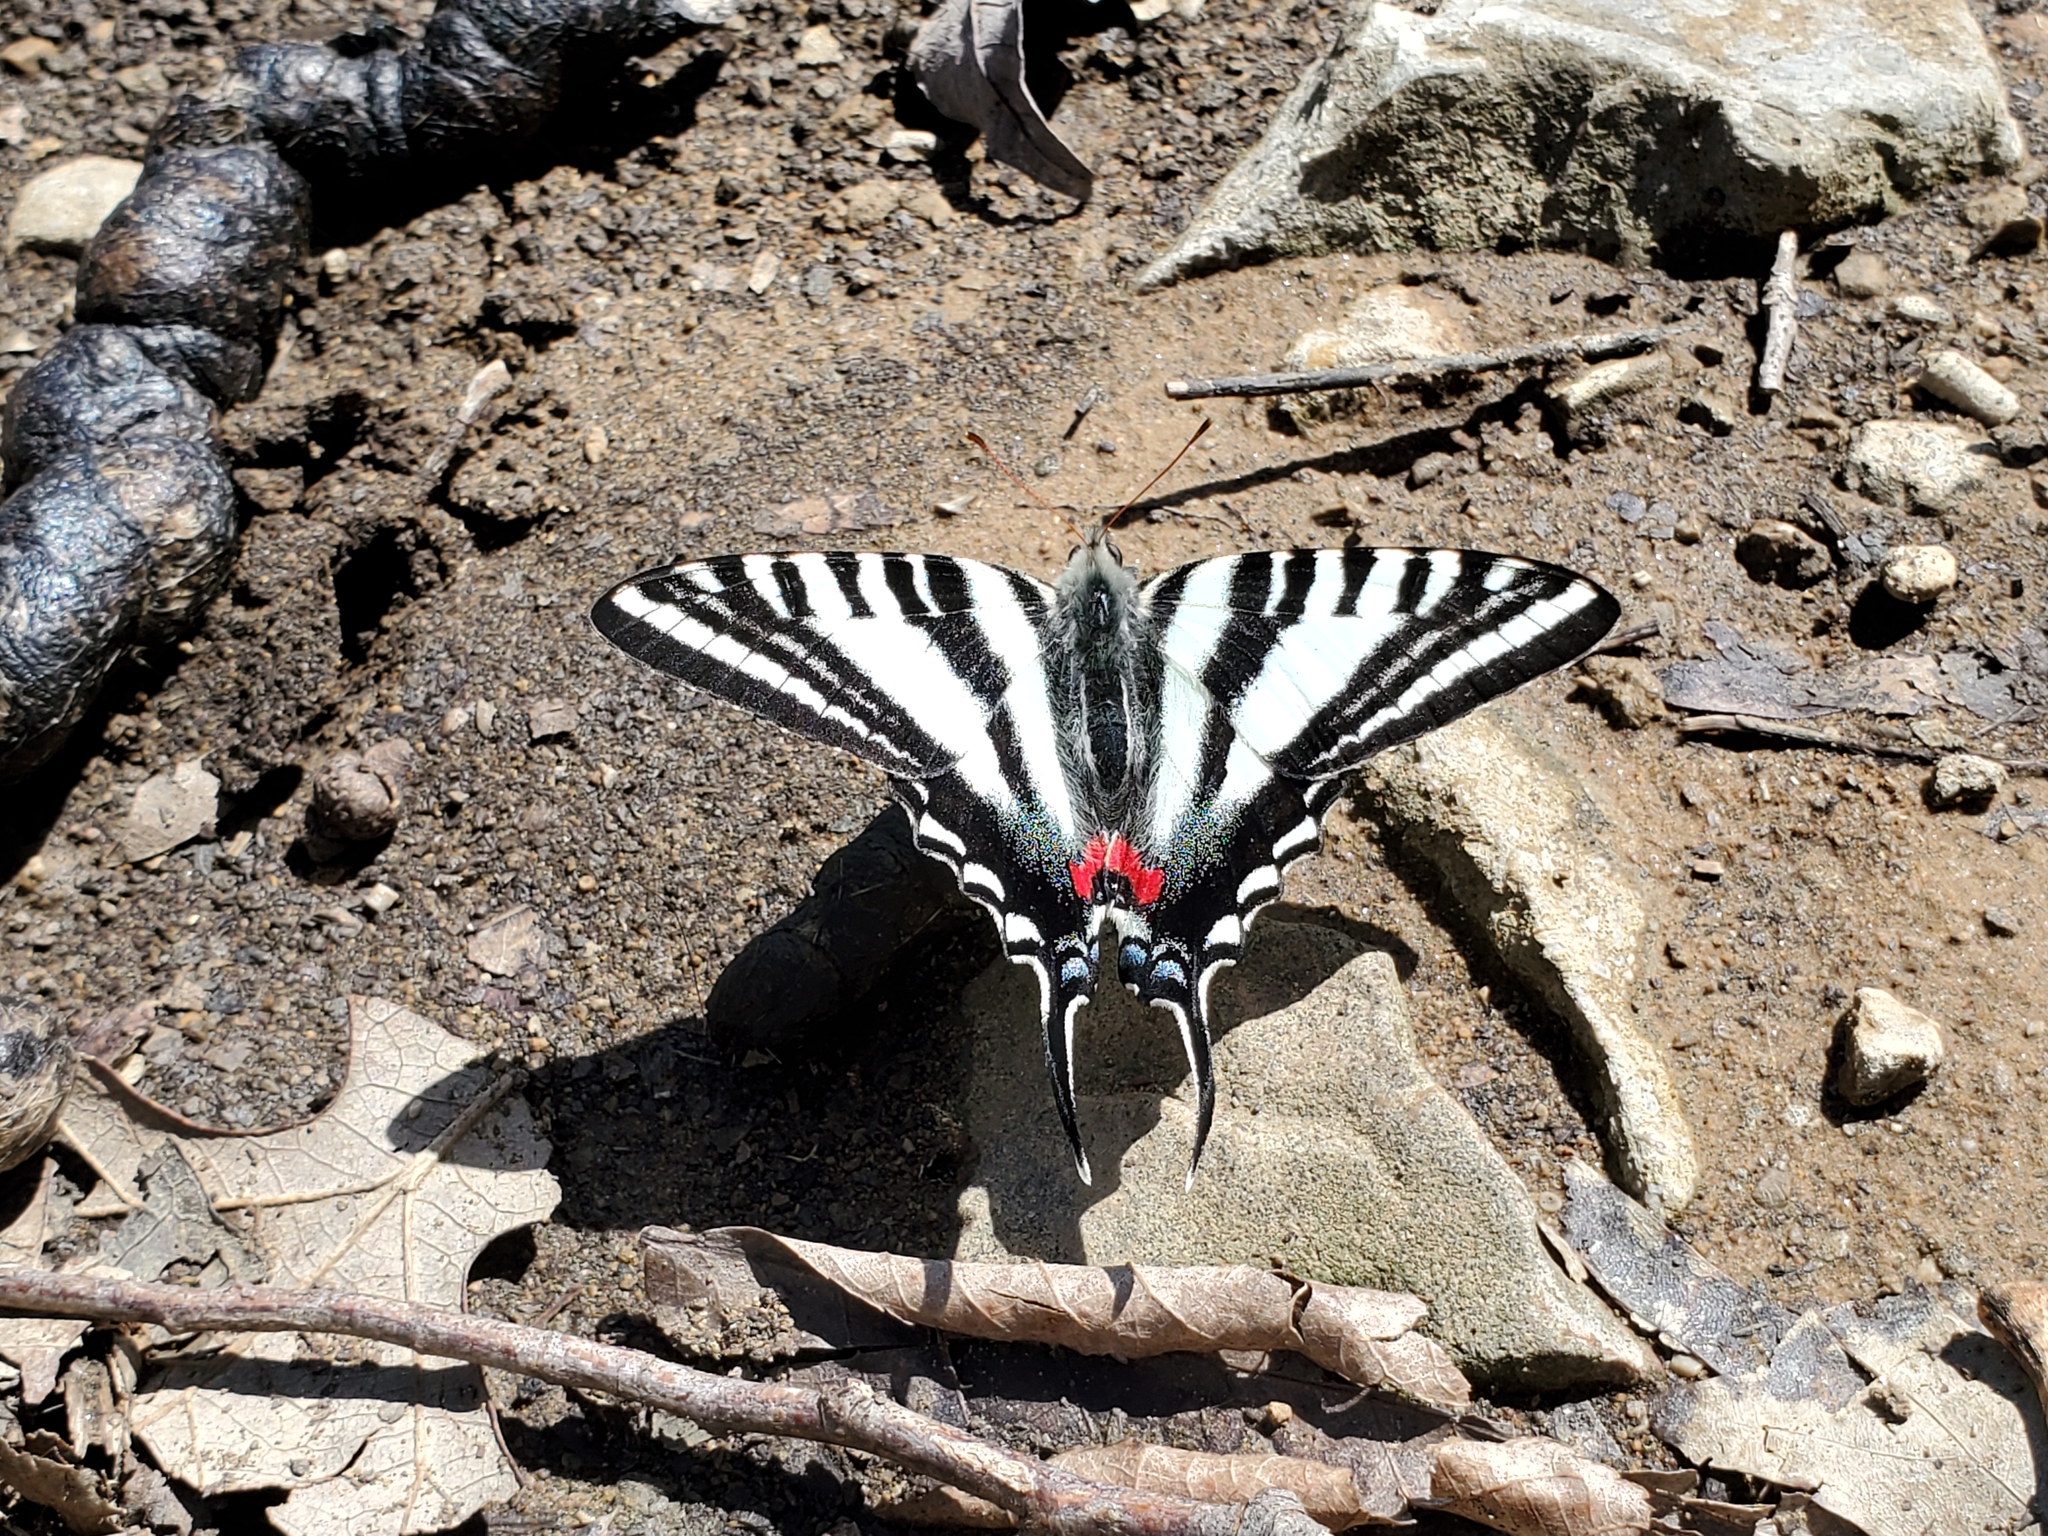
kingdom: Animalia
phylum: Arthropoda
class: Insecta
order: Lepidoptera
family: Papilionidae
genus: Protographium
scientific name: Protographium marcellus
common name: Zebra swallowtail
